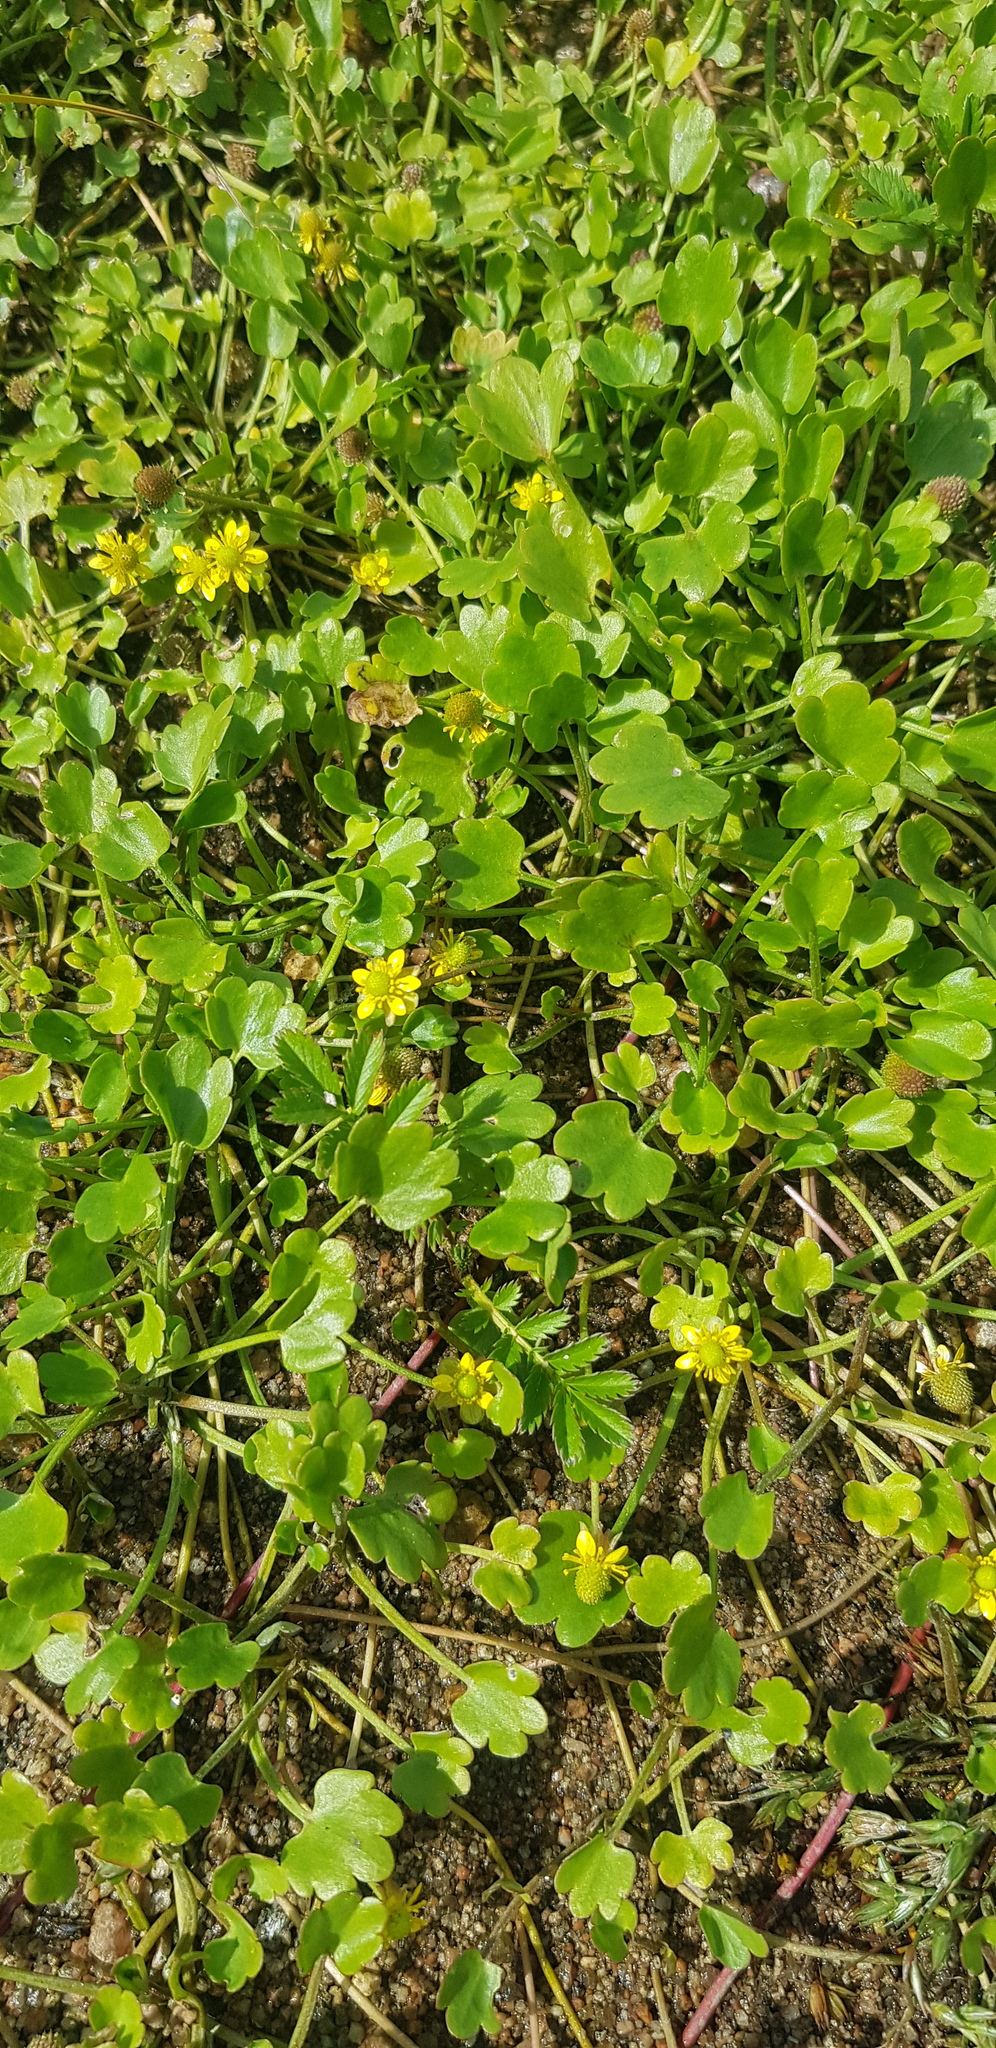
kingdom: Plantae
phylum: Tracheophyta
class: Magnoliopsida
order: Ranunculales
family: Ranunculaceae
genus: Halerpestes
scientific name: Halerpestes sarmentosus
